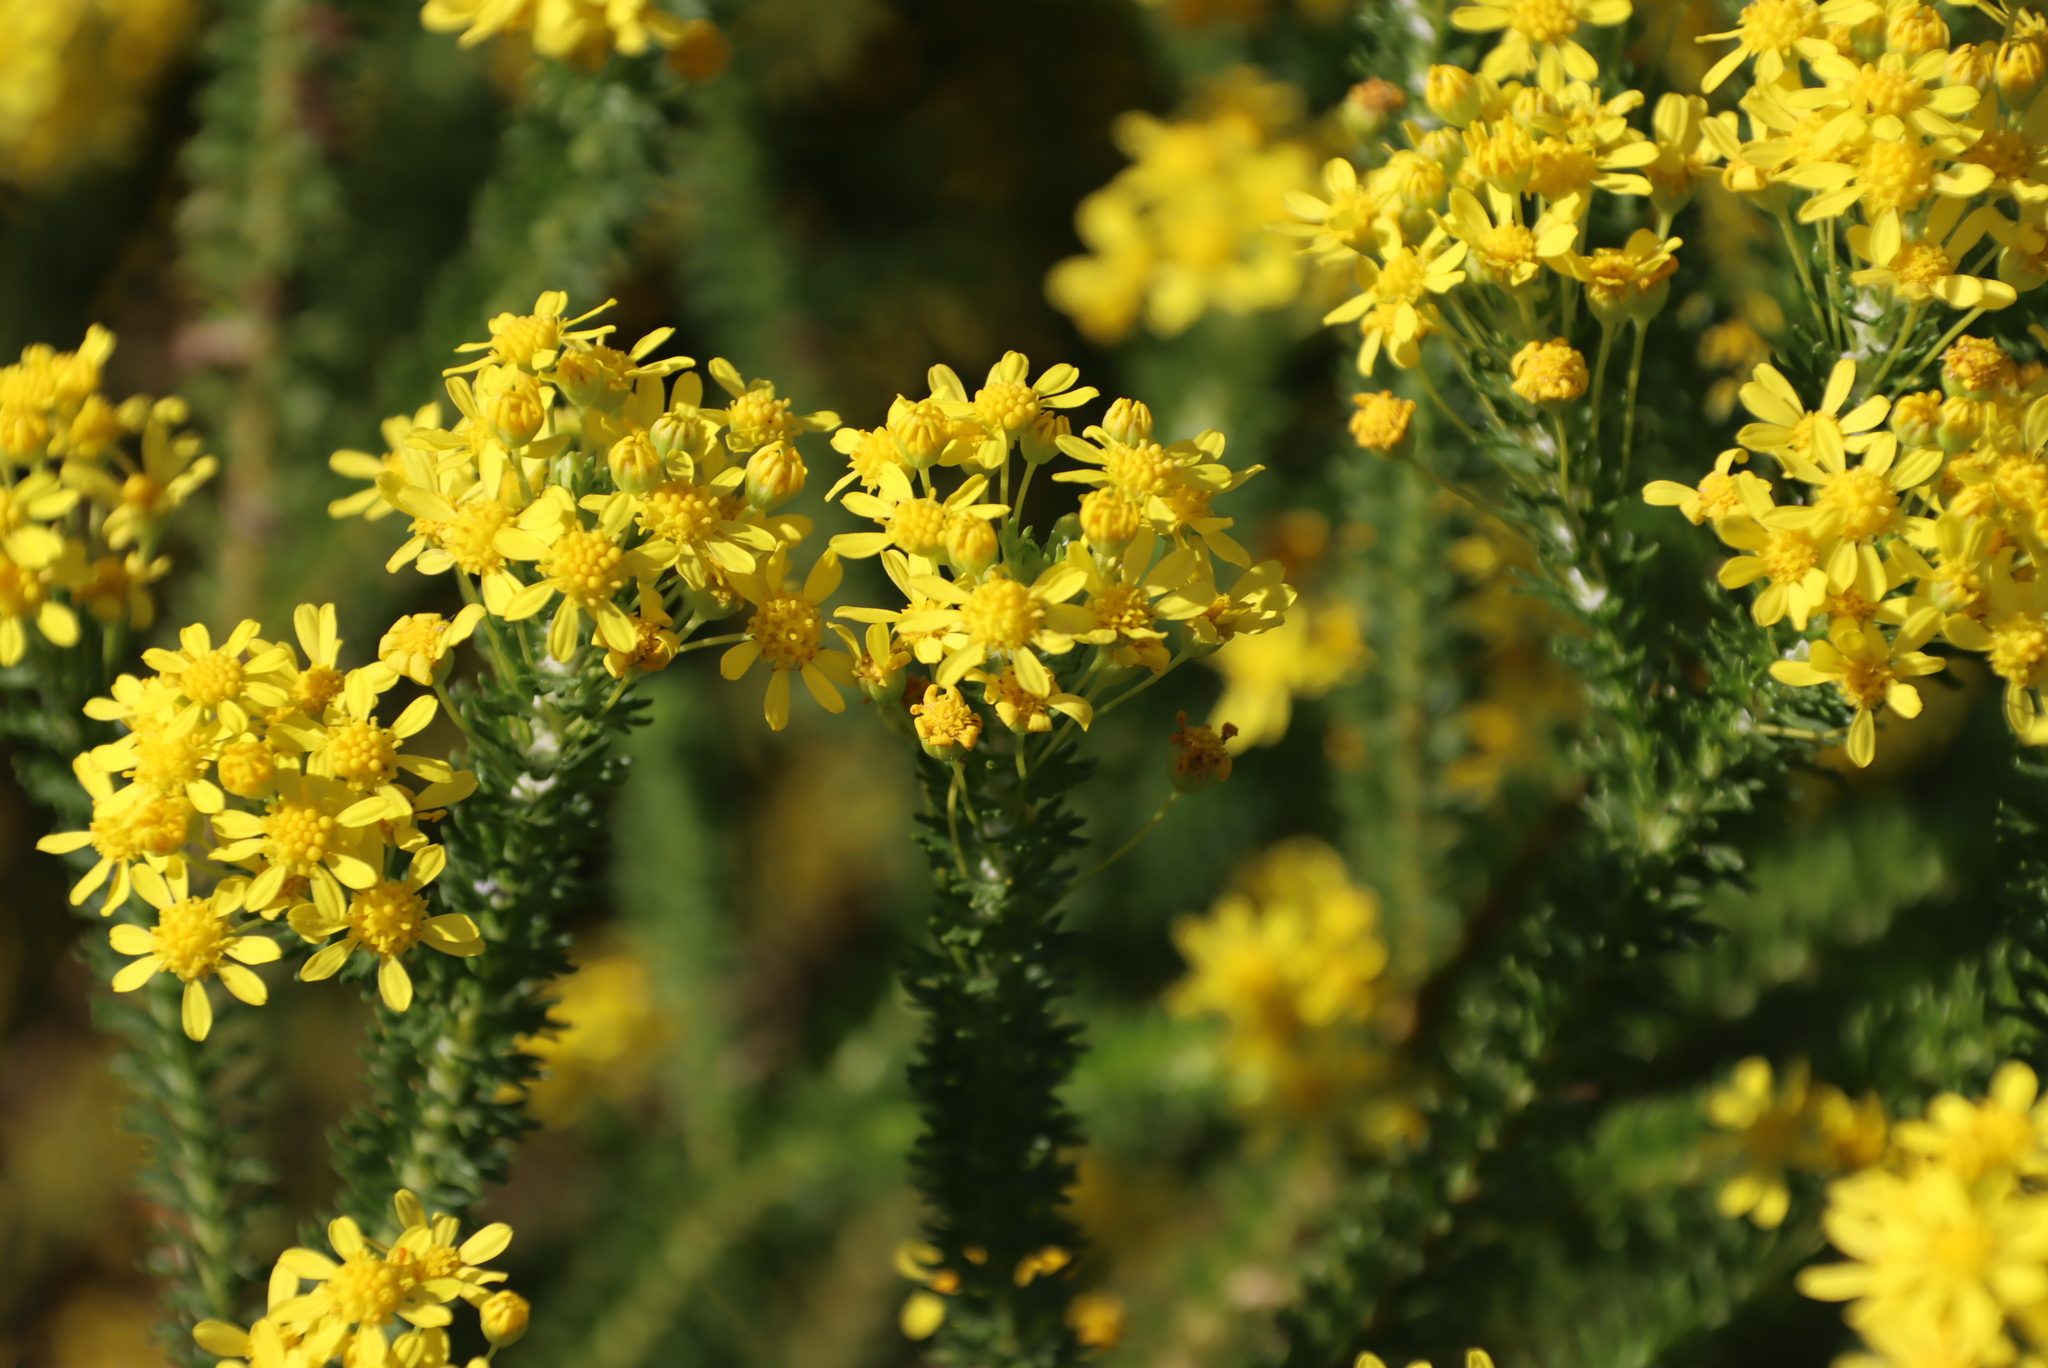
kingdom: Plantae
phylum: Tracheophyta
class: Magnoliopsida
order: Asterales
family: Asteraceae
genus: Euryops
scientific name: Euryops virgineus
